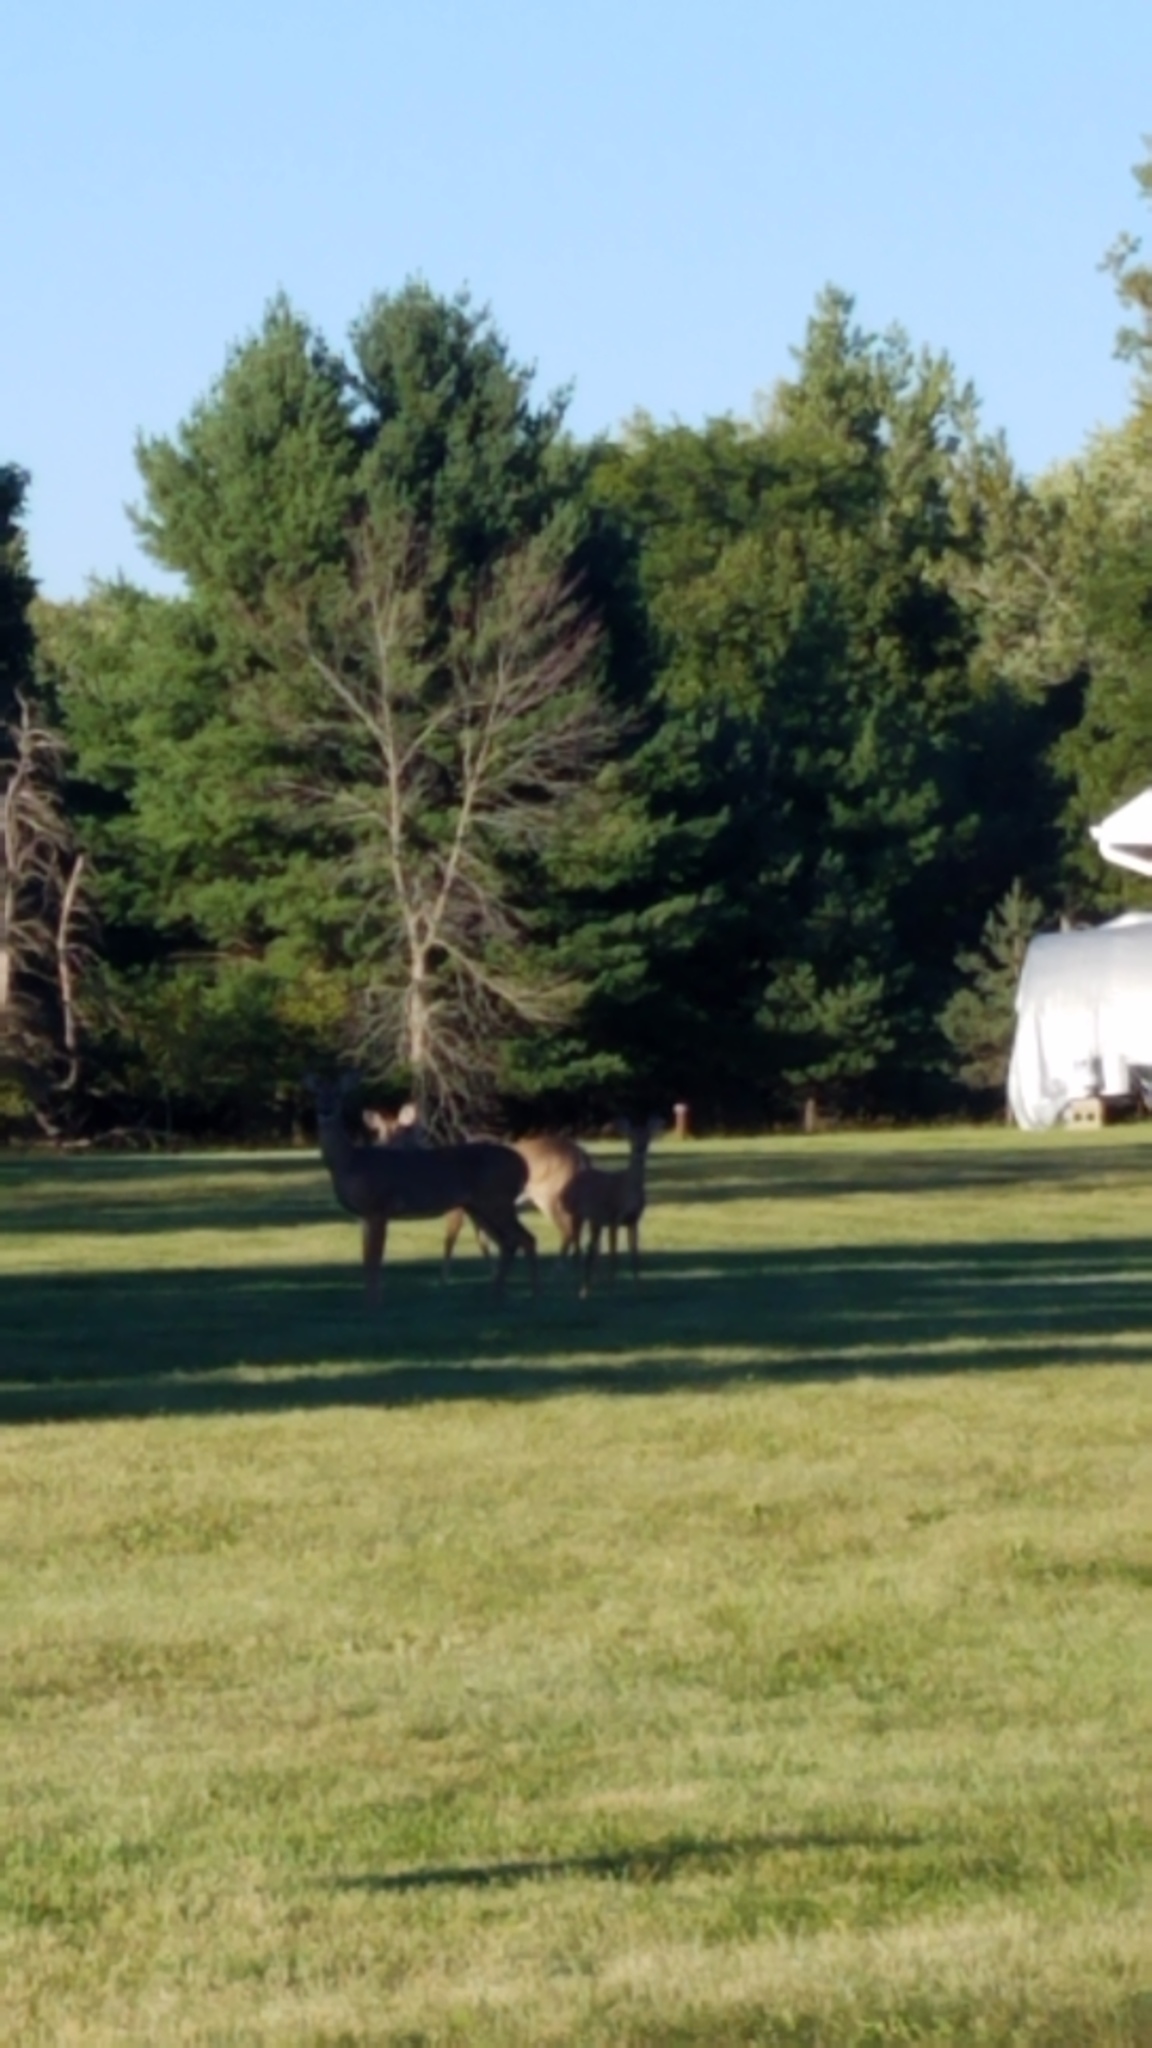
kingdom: Animalia
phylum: Chordata
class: Mammalia
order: Artiodactyla
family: Cervidae
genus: Odocoileus
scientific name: Odocoileus virginianus
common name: White-tailed deer
